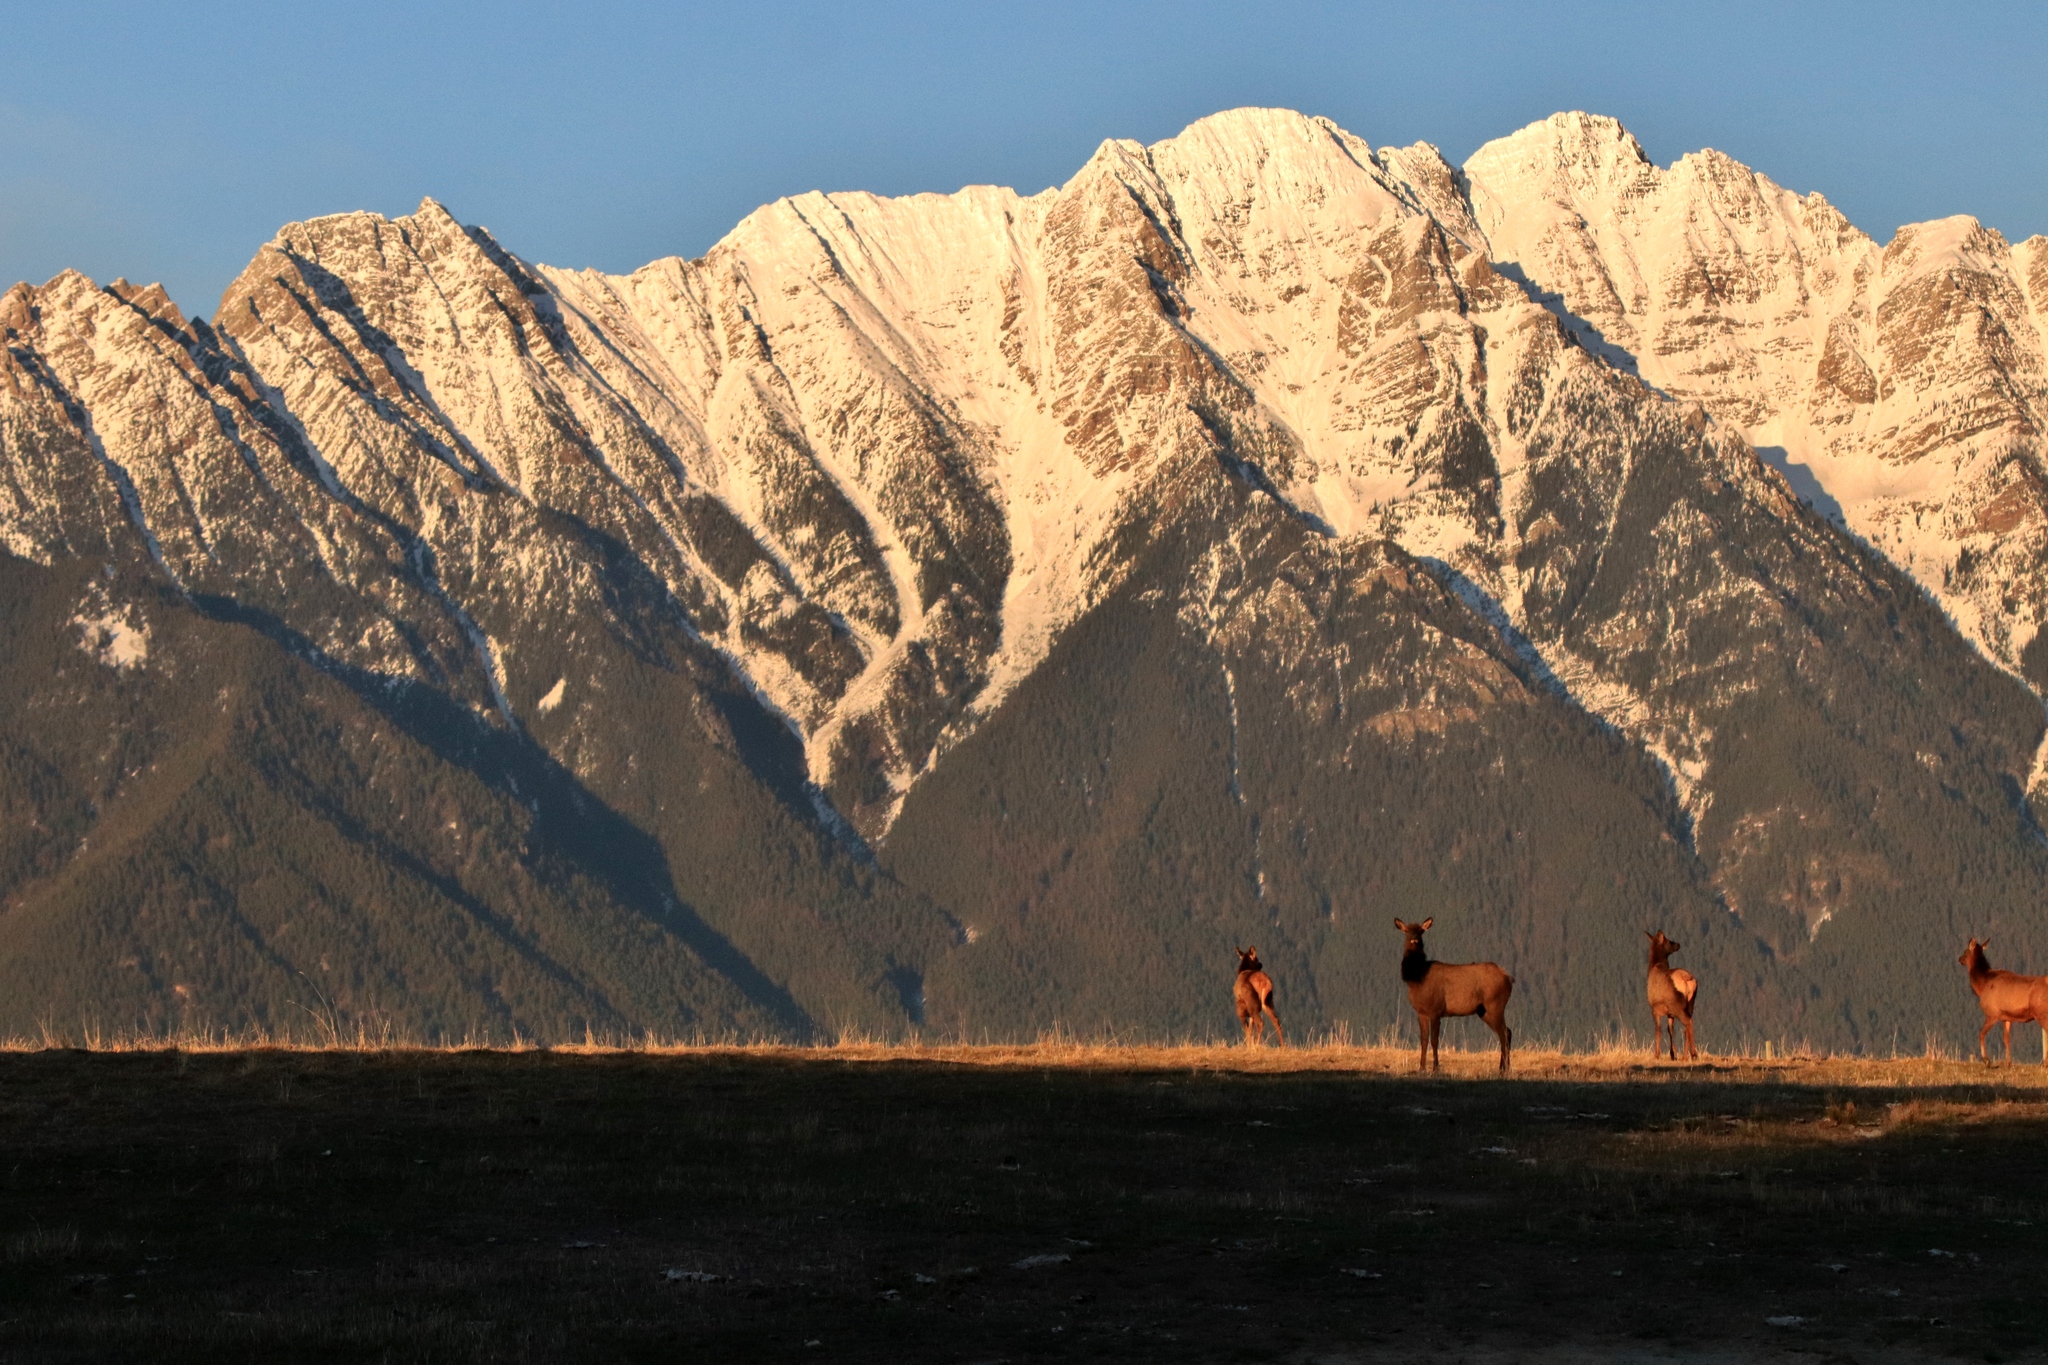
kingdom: Animalia
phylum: Chordata
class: Mammalia
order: Artiodactyla
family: Cervidae
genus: Cervus
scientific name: Cervus elaphus
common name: Red deer
